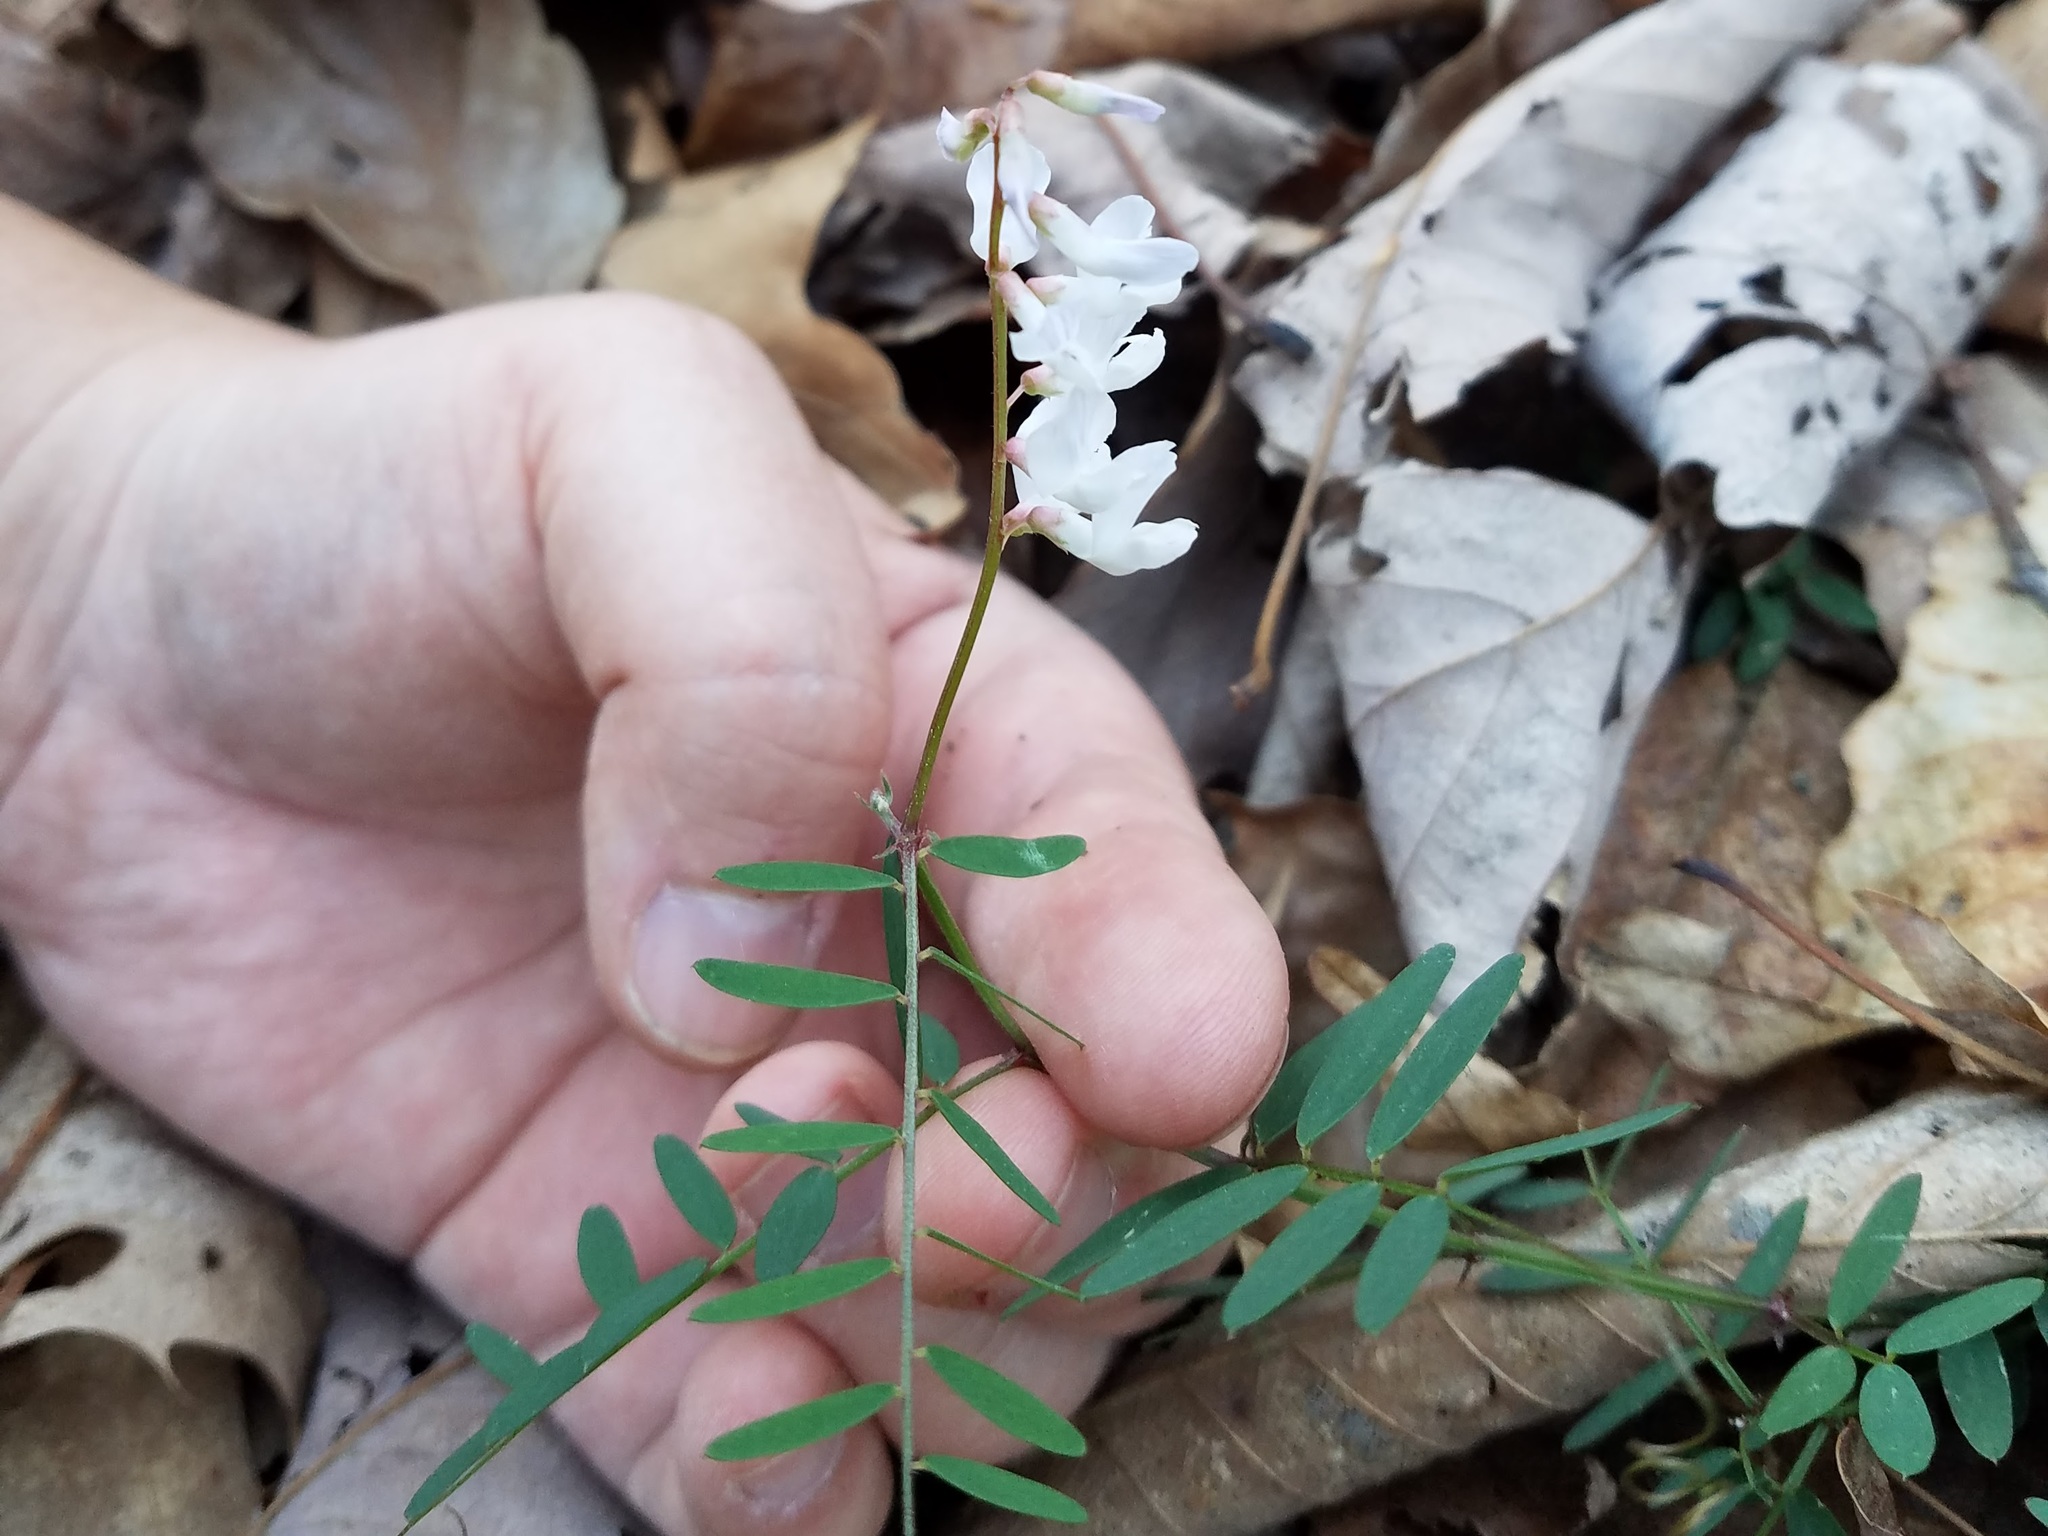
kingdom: Plantae
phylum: Tracheophyta
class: Magnoliopsida
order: Fabales
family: Fabaceae
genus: Vicia
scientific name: Vicia caroliniana
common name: Carolina vetch
